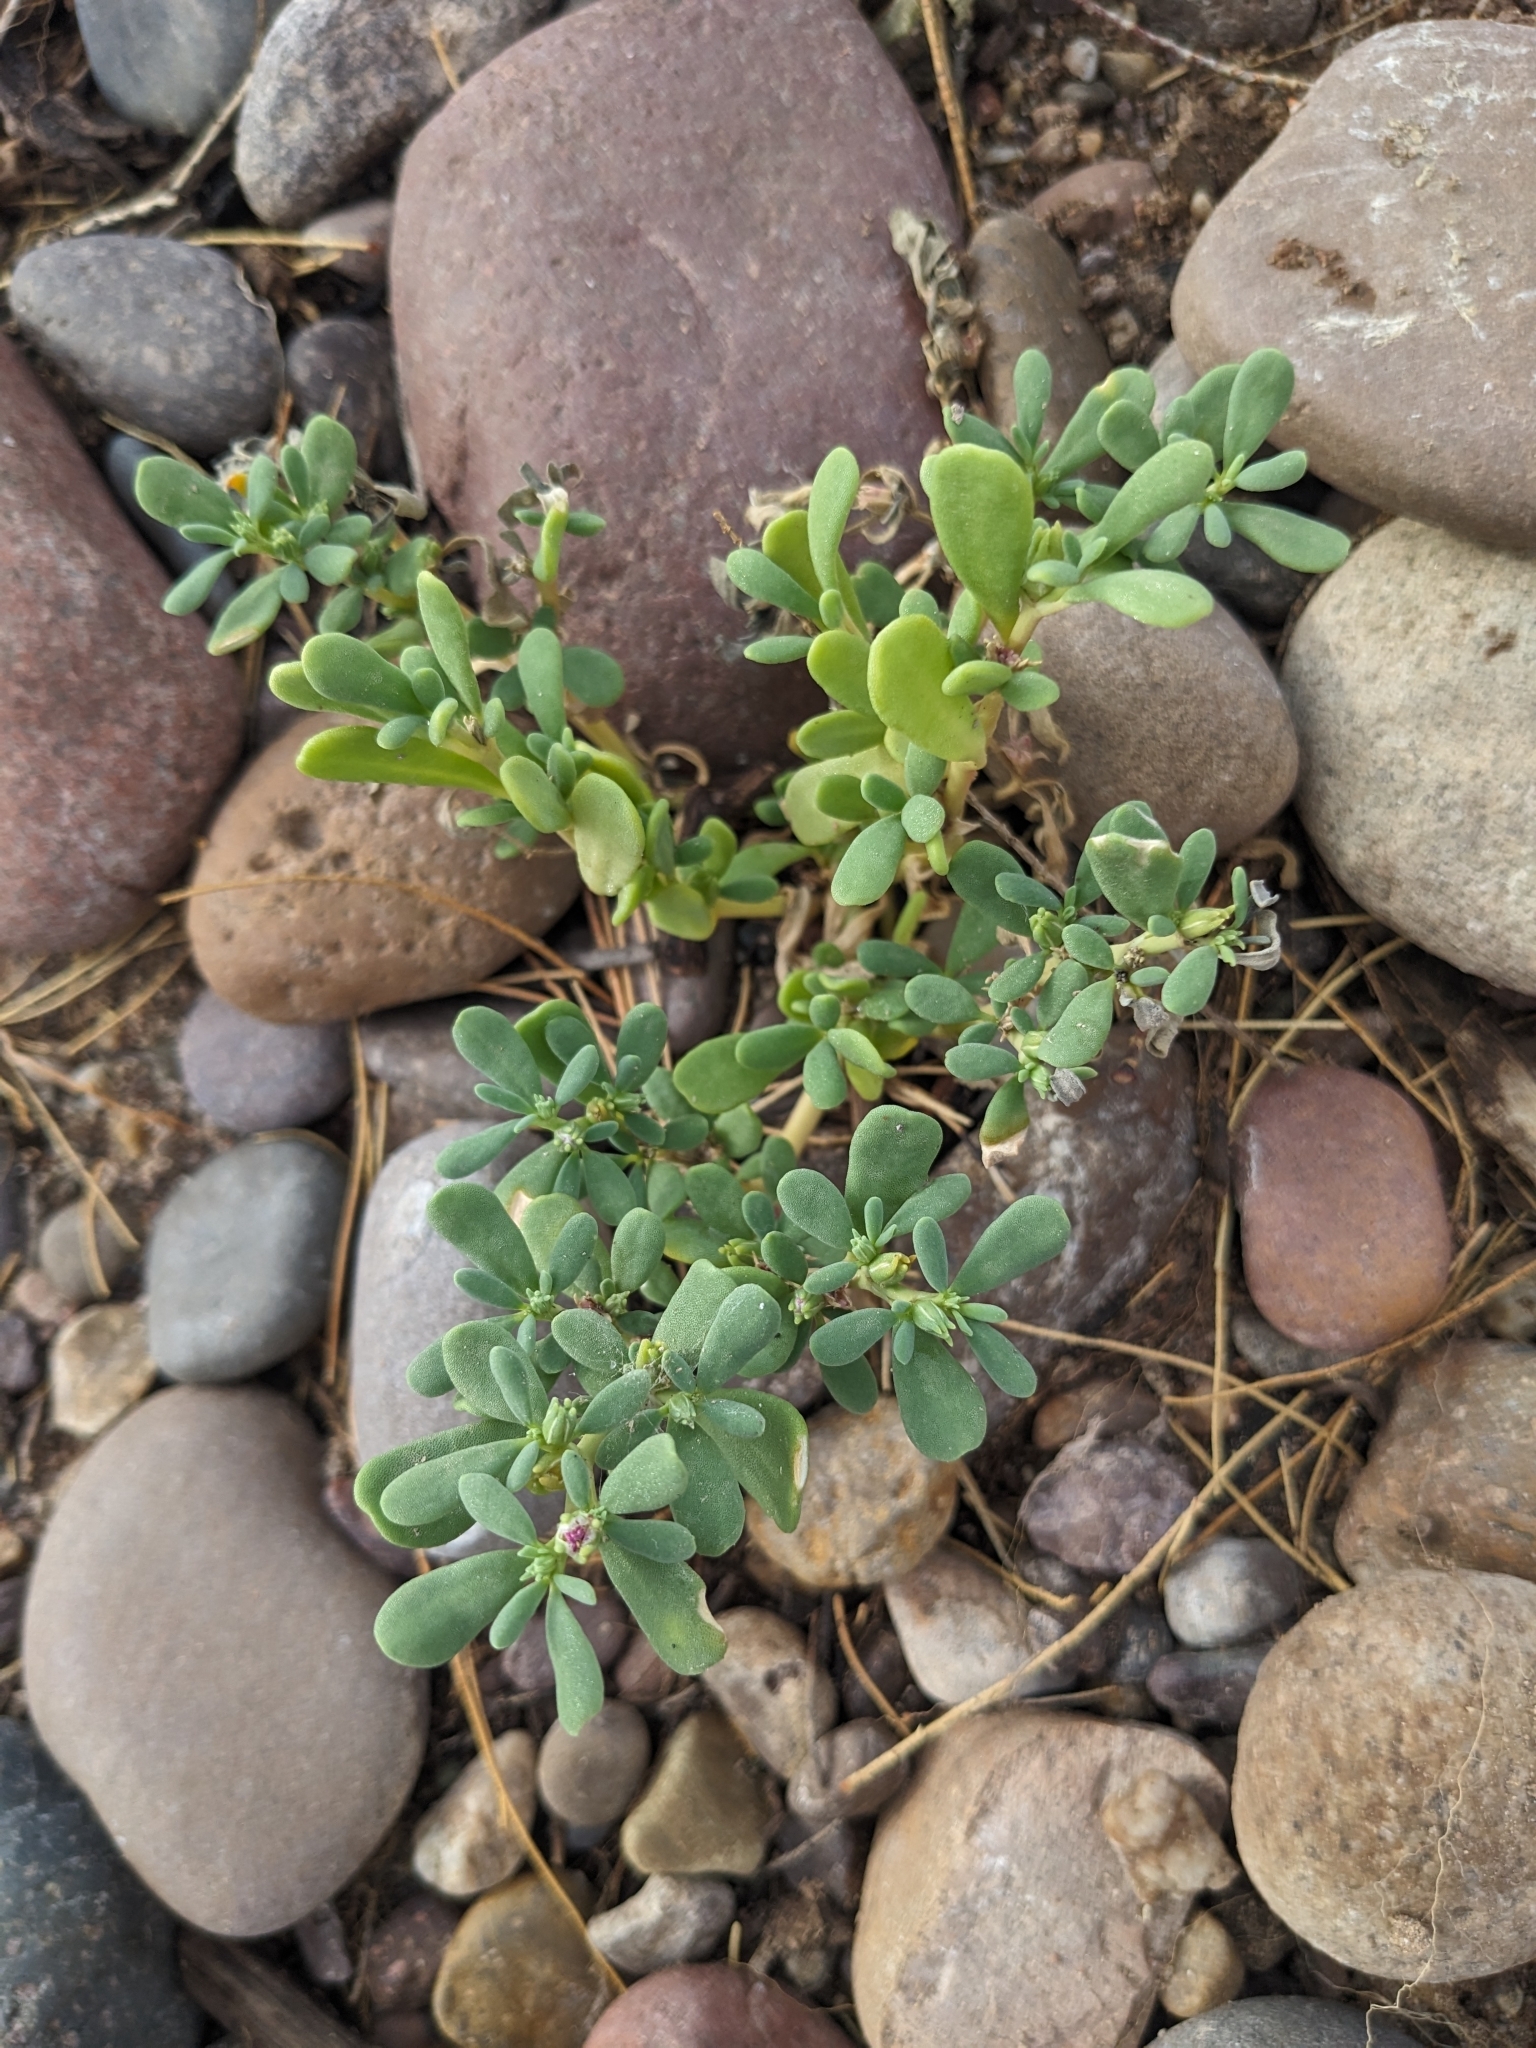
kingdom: Plantae
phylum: Tracheophyta
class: Magnoliopsida
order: Caryophyllales
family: Aizoaceae
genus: Sesuvium
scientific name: Sesuvium revolutifolium
